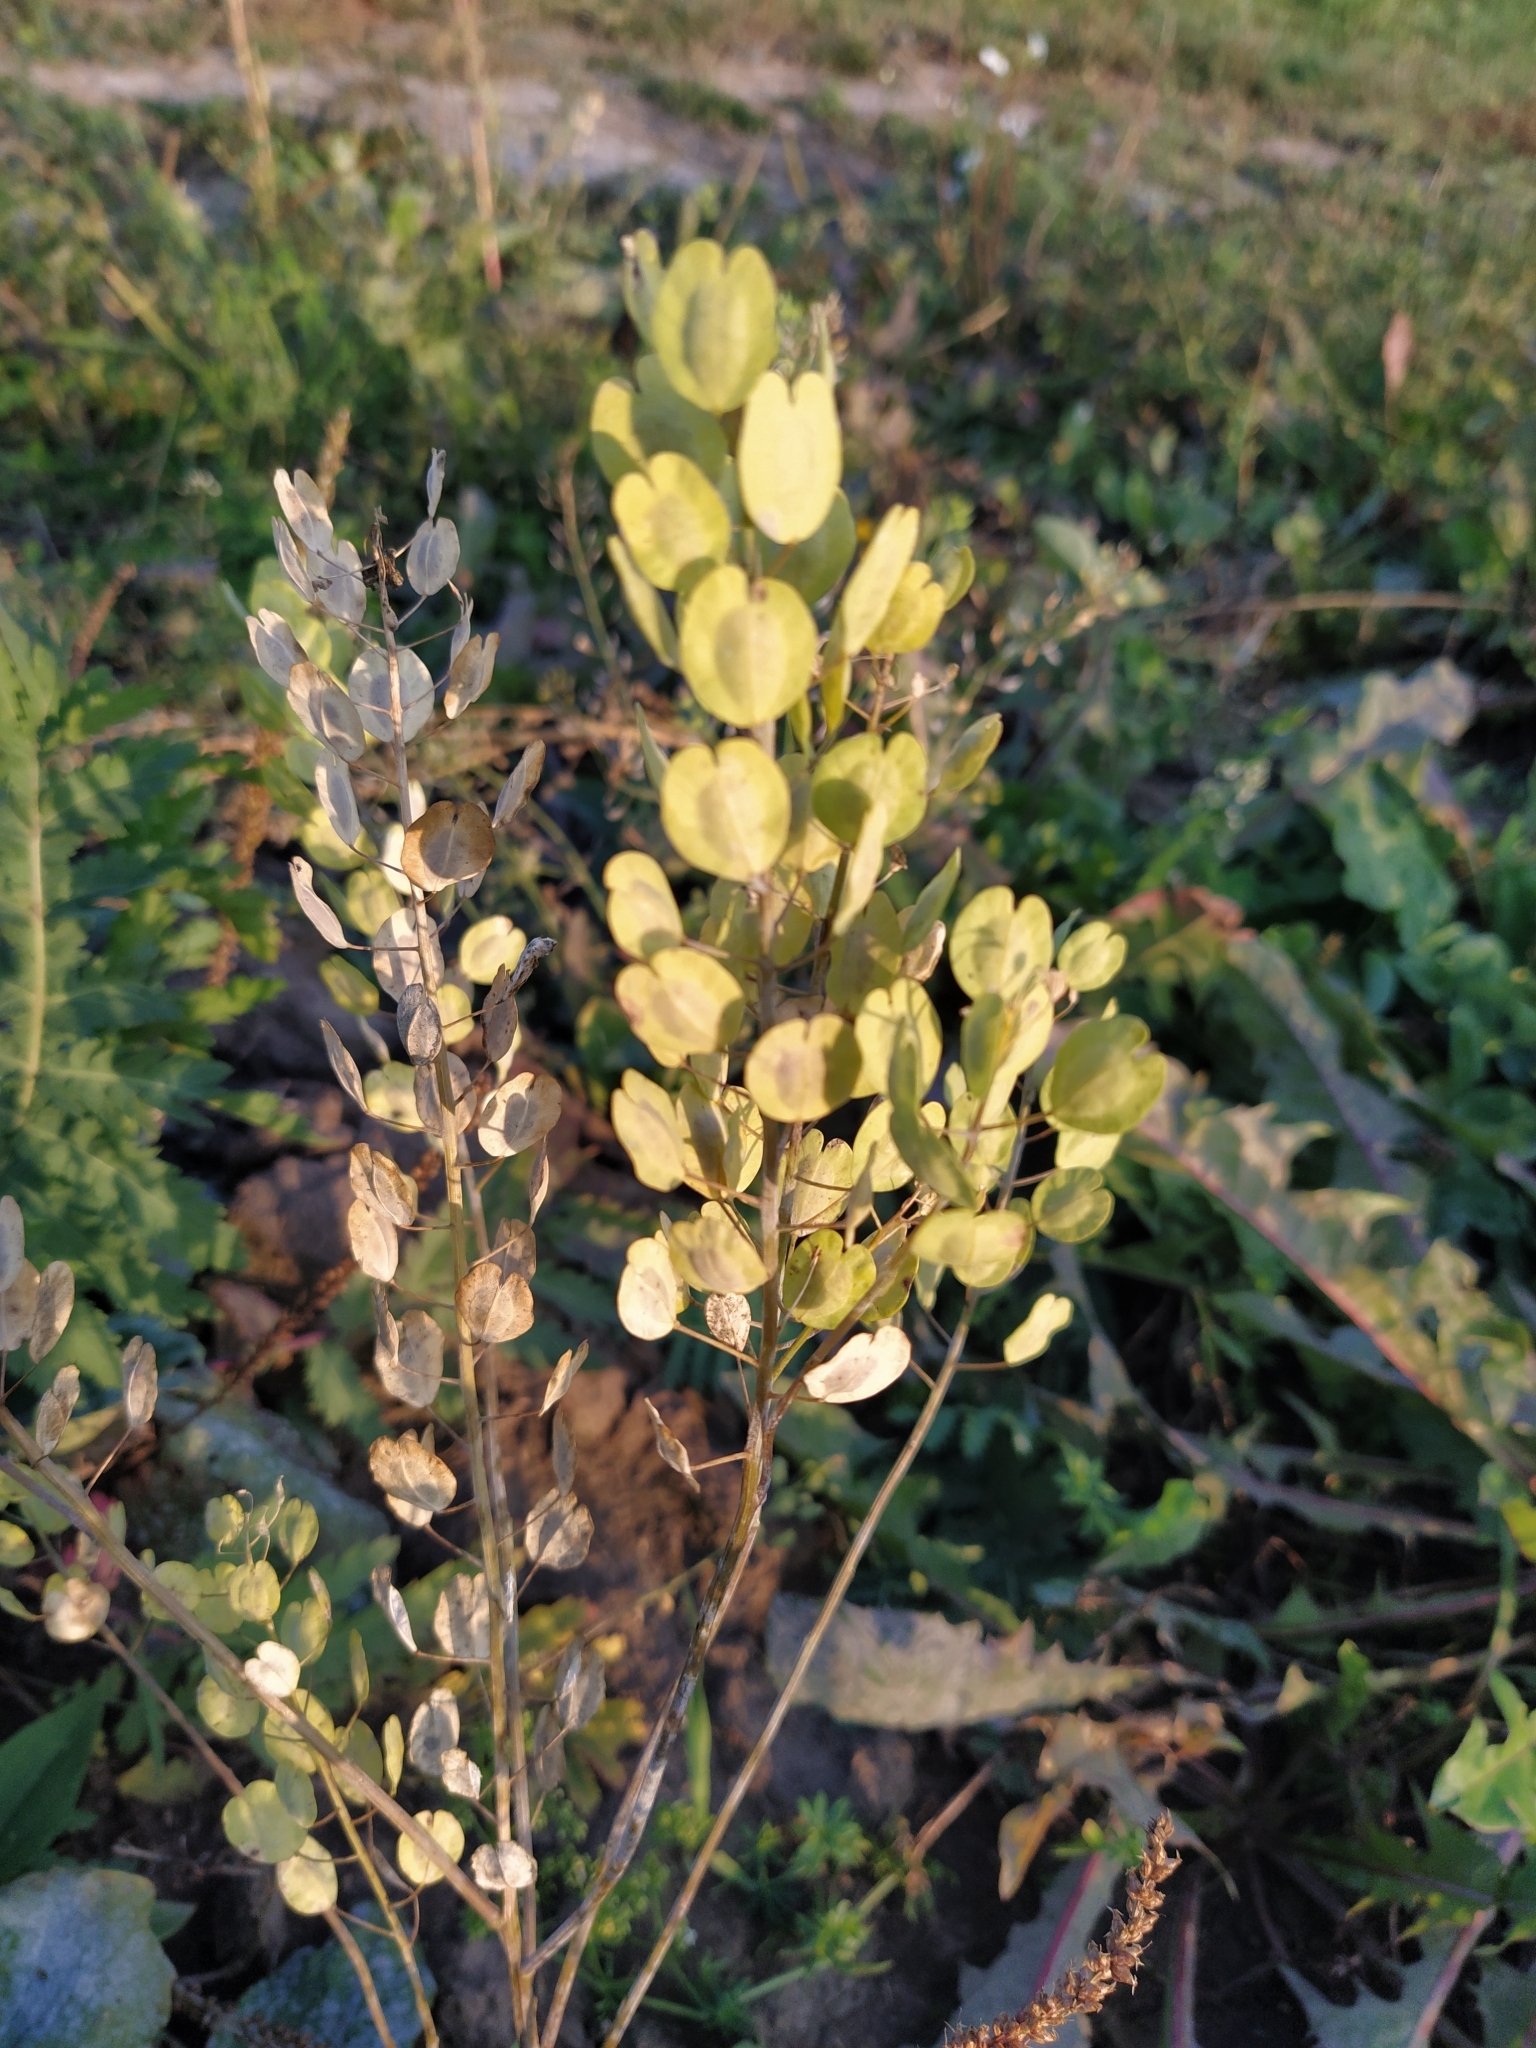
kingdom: Plantae
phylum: Tracheophyta
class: Magnoliopsida
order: Brassicales
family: Brassicaceae
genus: Thlaspi
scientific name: Thlaspi arvense
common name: Field pennycress
